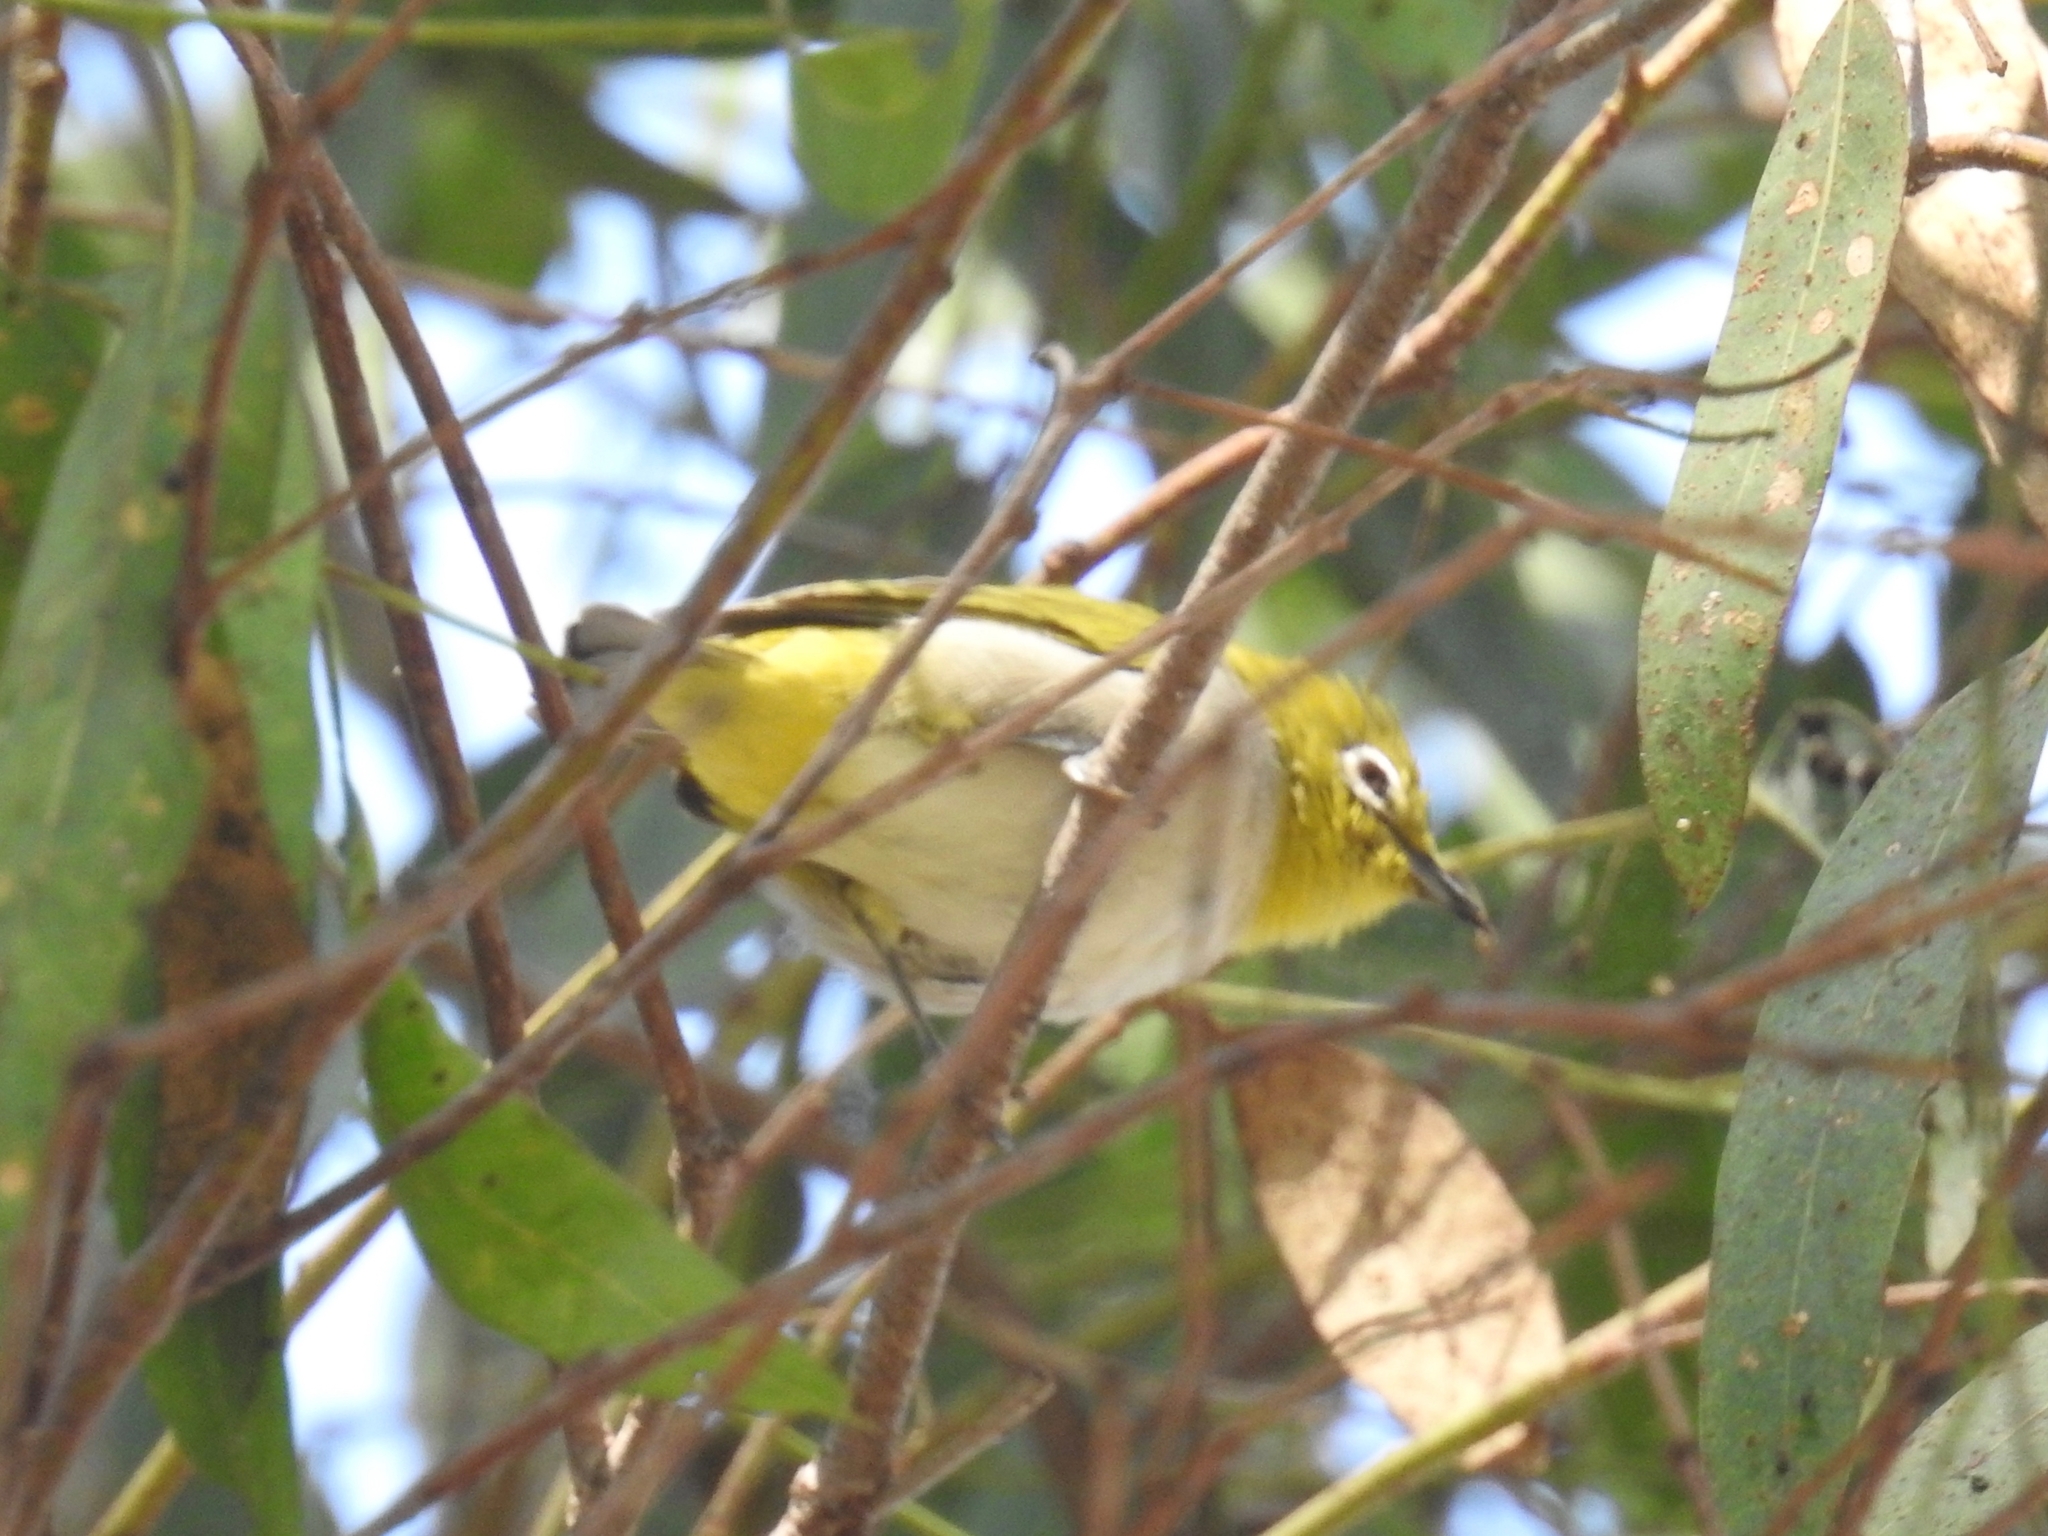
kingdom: Animalia
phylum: Chordata
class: Aves
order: Passeriformes
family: Zosteropidae
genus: Zosterops
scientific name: Zosterops simplex
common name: Swinhoe's white-eye
